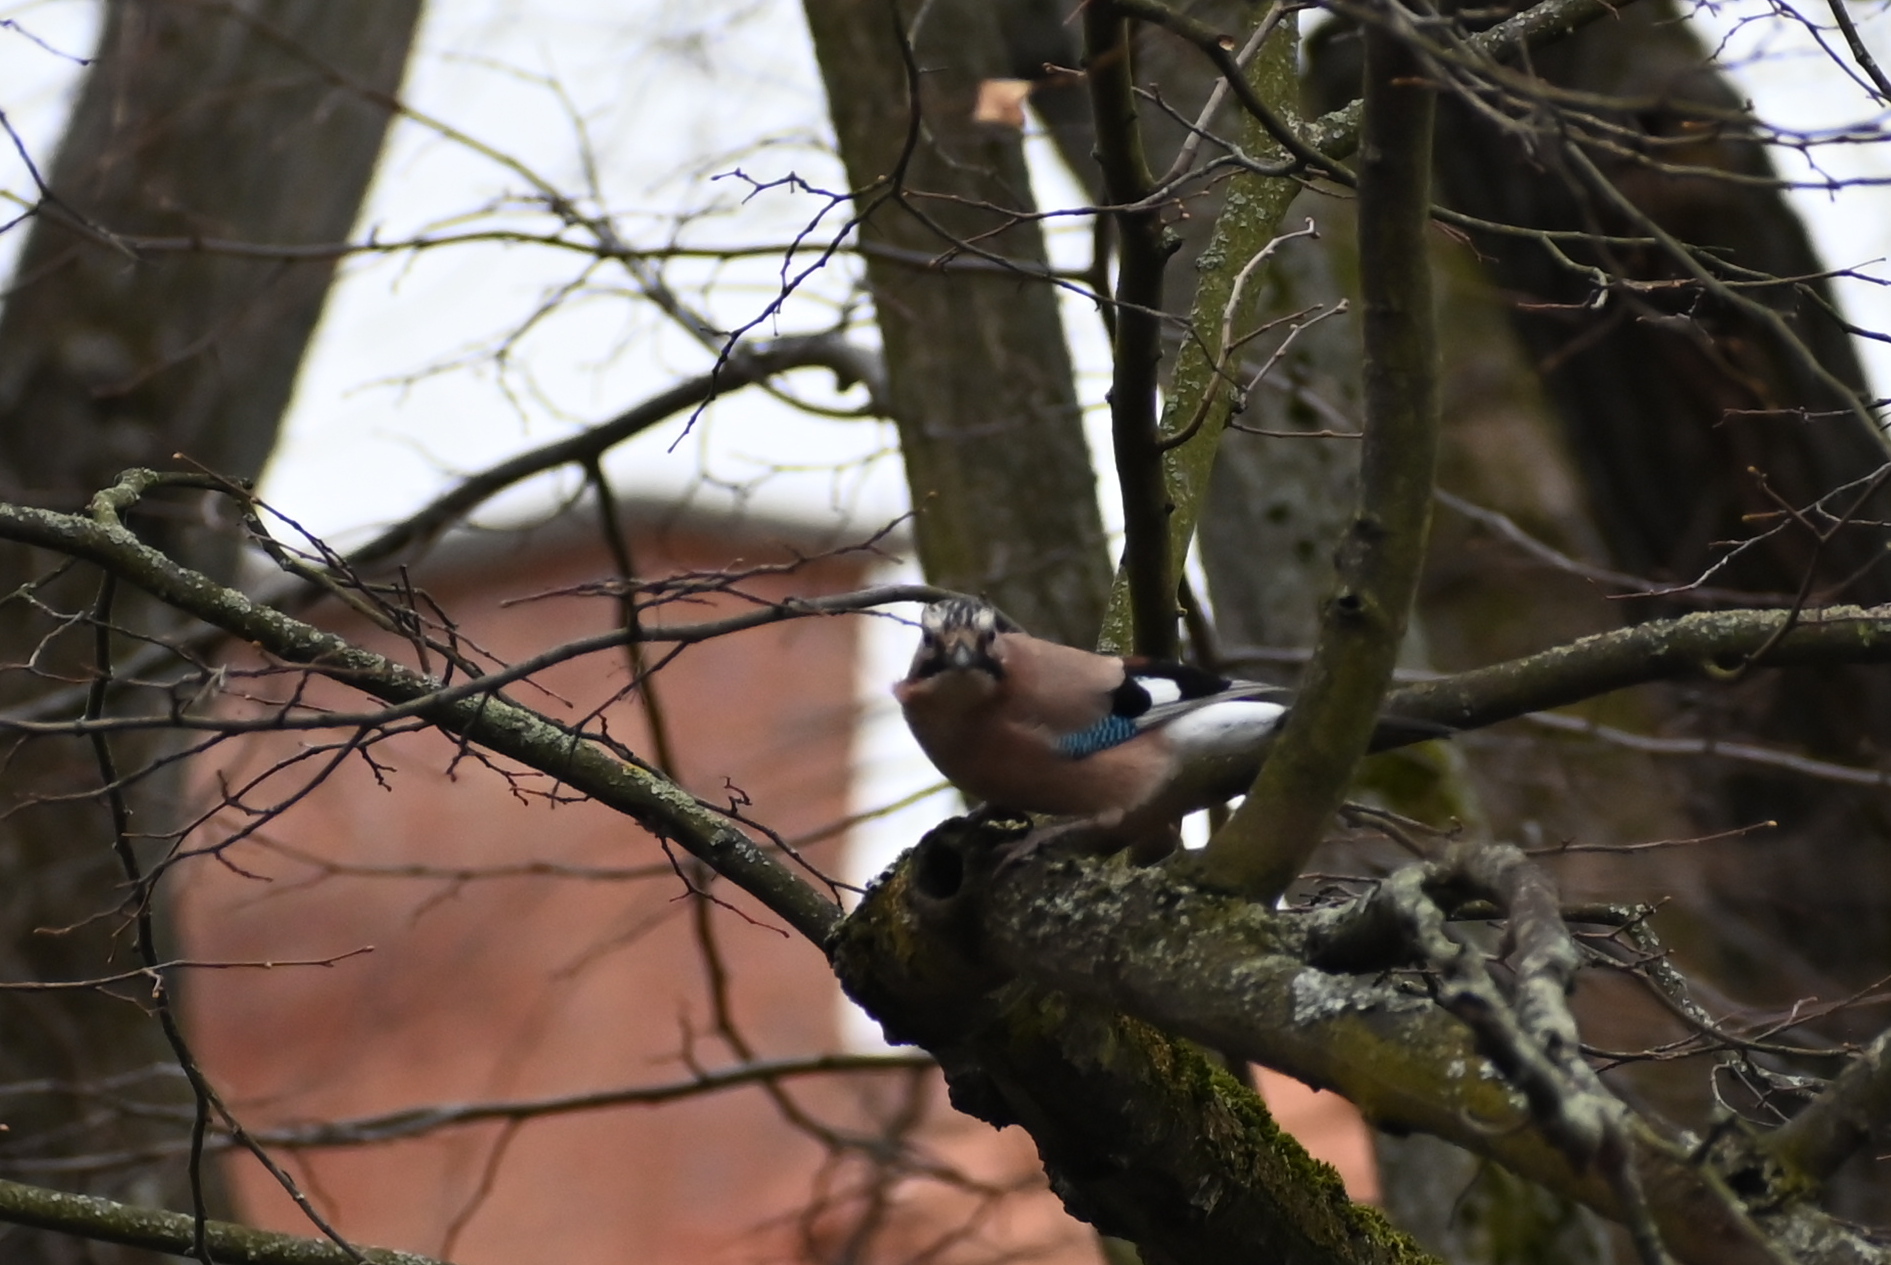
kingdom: Animalia
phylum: Chordata
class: Aves
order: Passeriformes
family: Corvidae
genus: Garrulus
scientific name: Garrulus glandarius
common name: Eurasian jay
